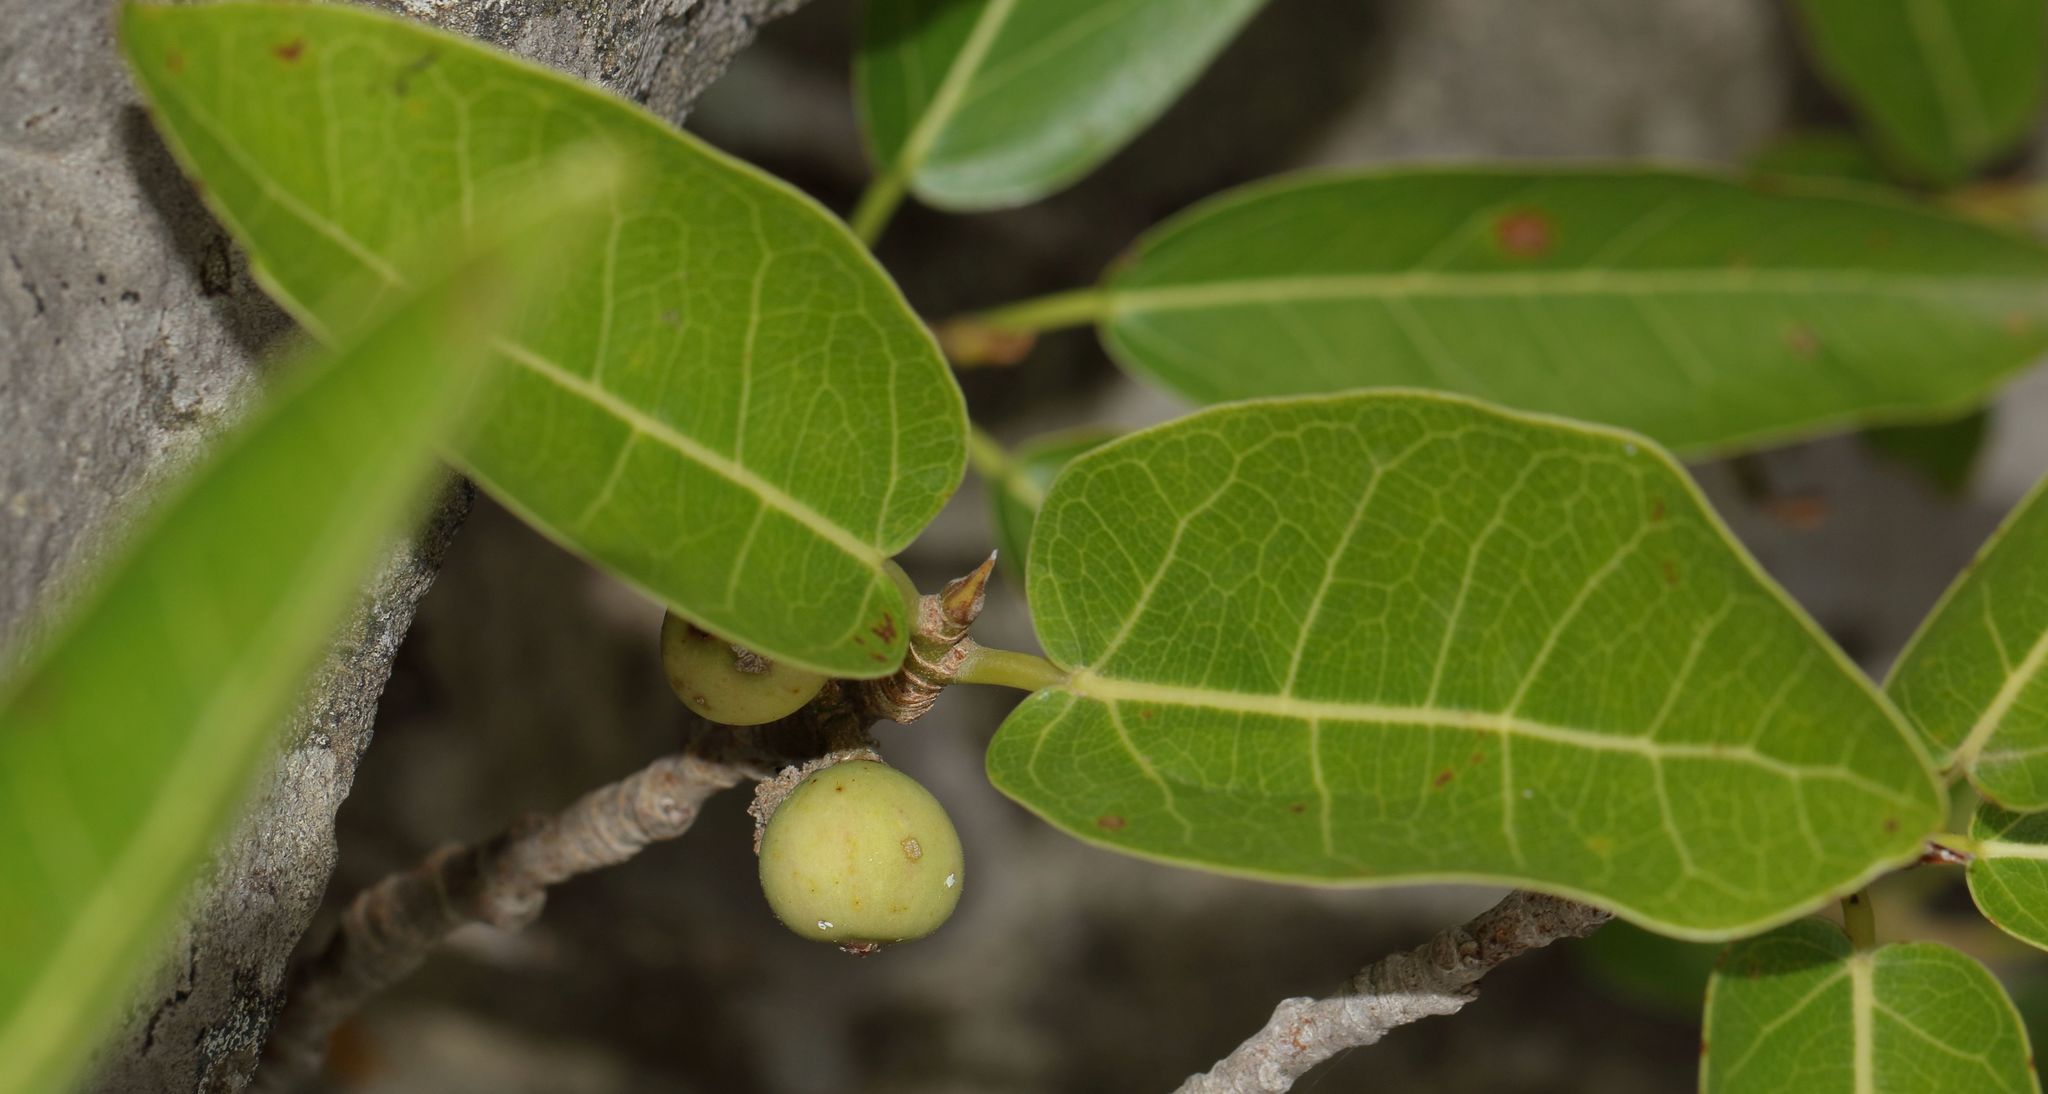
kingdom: Plantae
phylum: Tracheophyta
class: Magnoliopsida
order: Rosales
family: Moraceae
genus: Ficus
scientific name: Ficus ingens
